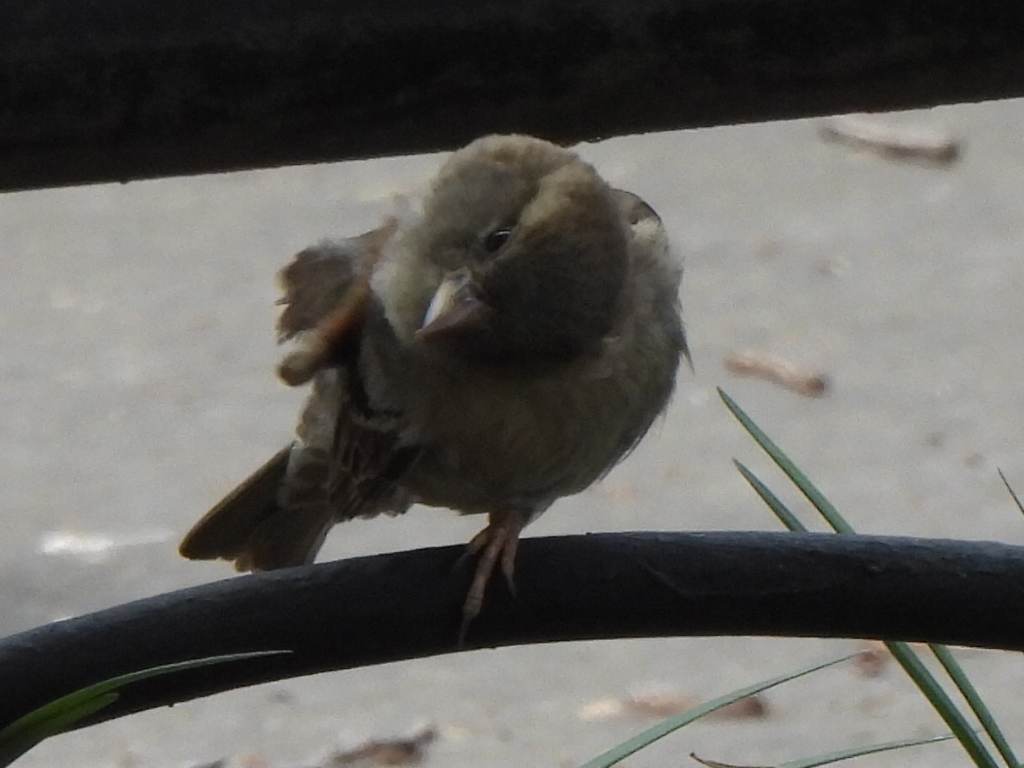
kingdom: Animalia
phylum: Chordata
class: Aves
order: Passeriformes
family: Passeridae
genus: Passer
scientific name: Passer domesticus
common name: House sparrow
